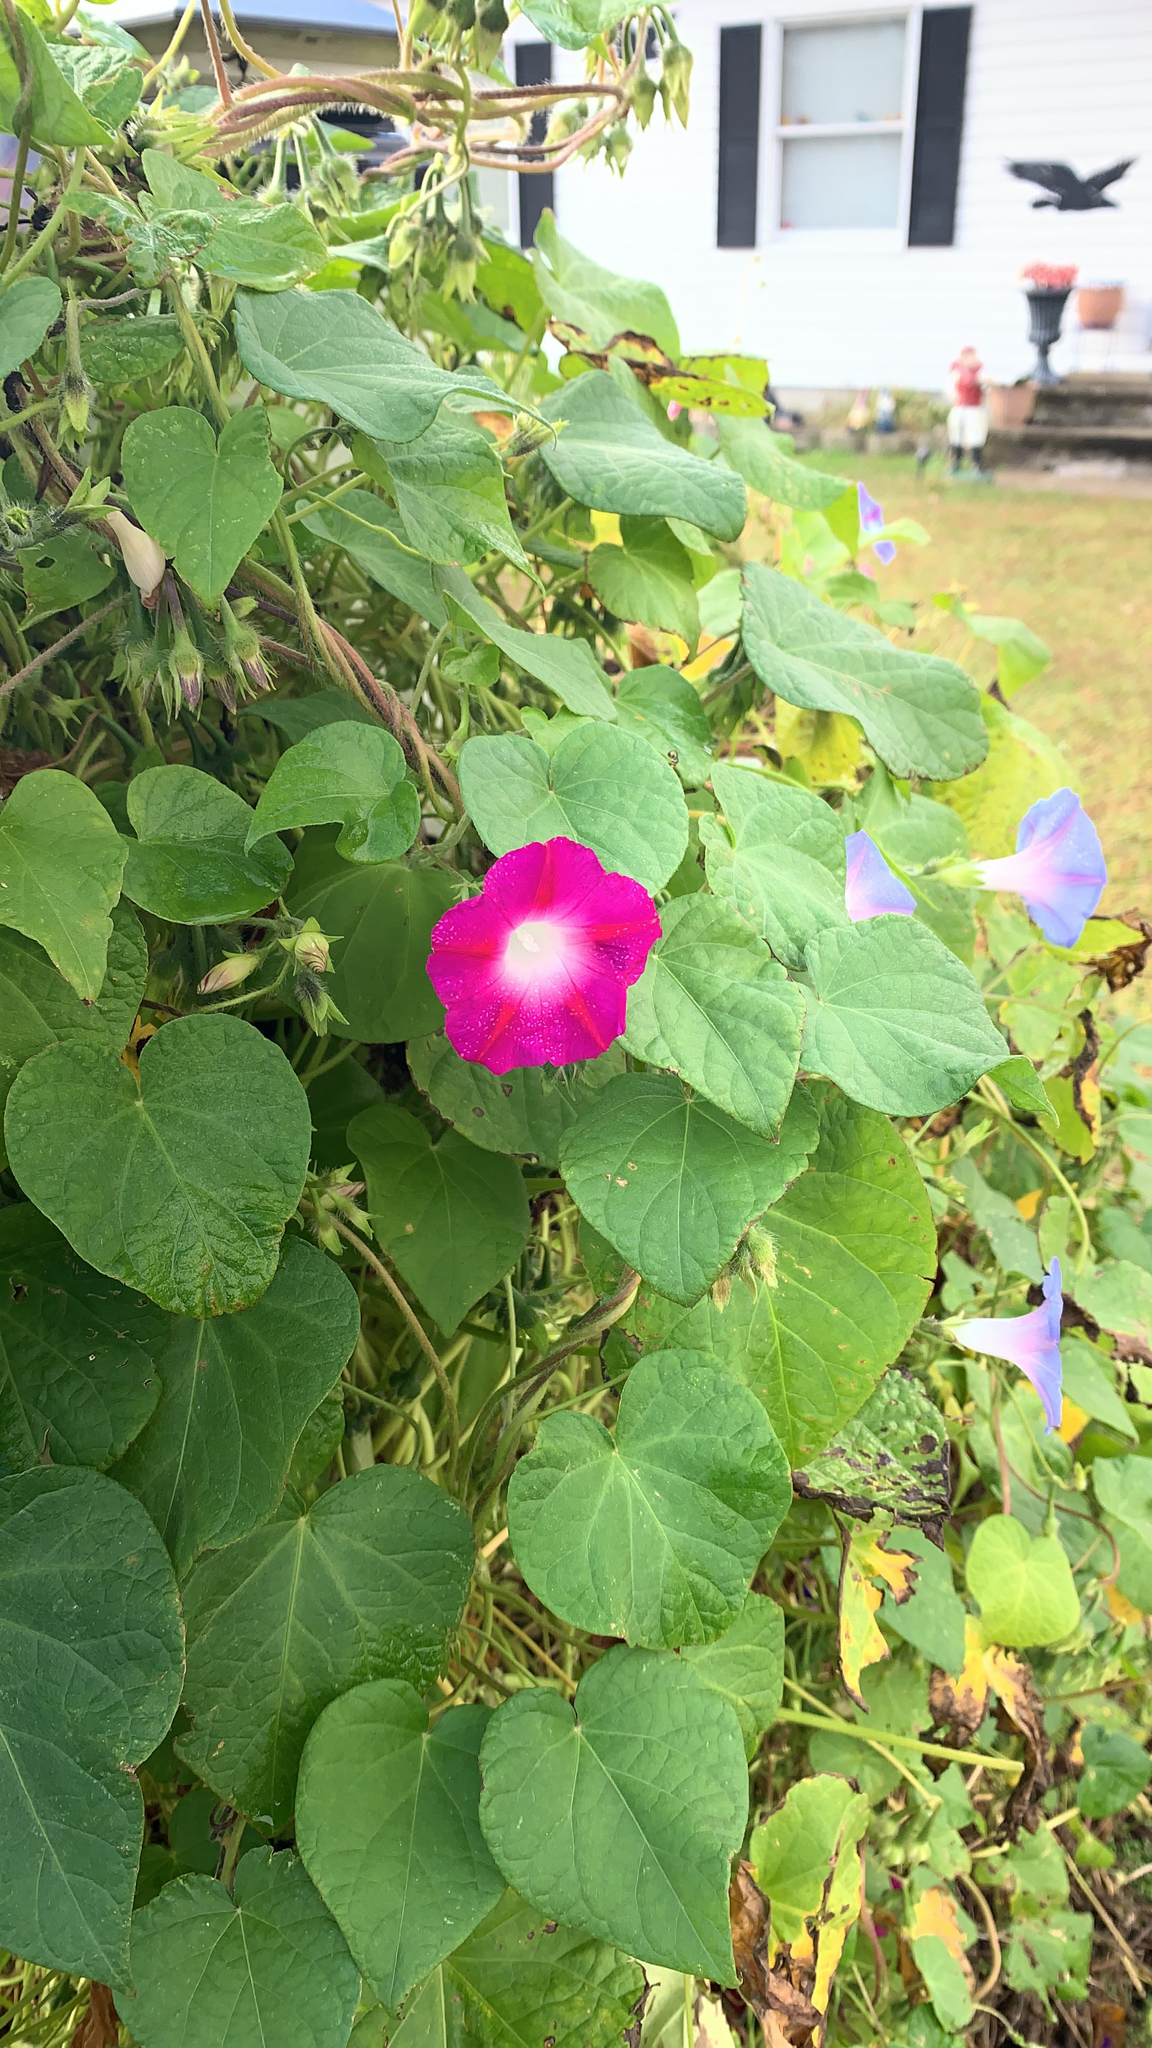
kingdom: Plantae
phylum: Tracheophyta
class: Magnoliopsida
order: Solanales
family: Convolvulaceae
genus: Ipomoea
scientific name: Ipomoea purpurea
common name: Common morning-glory
